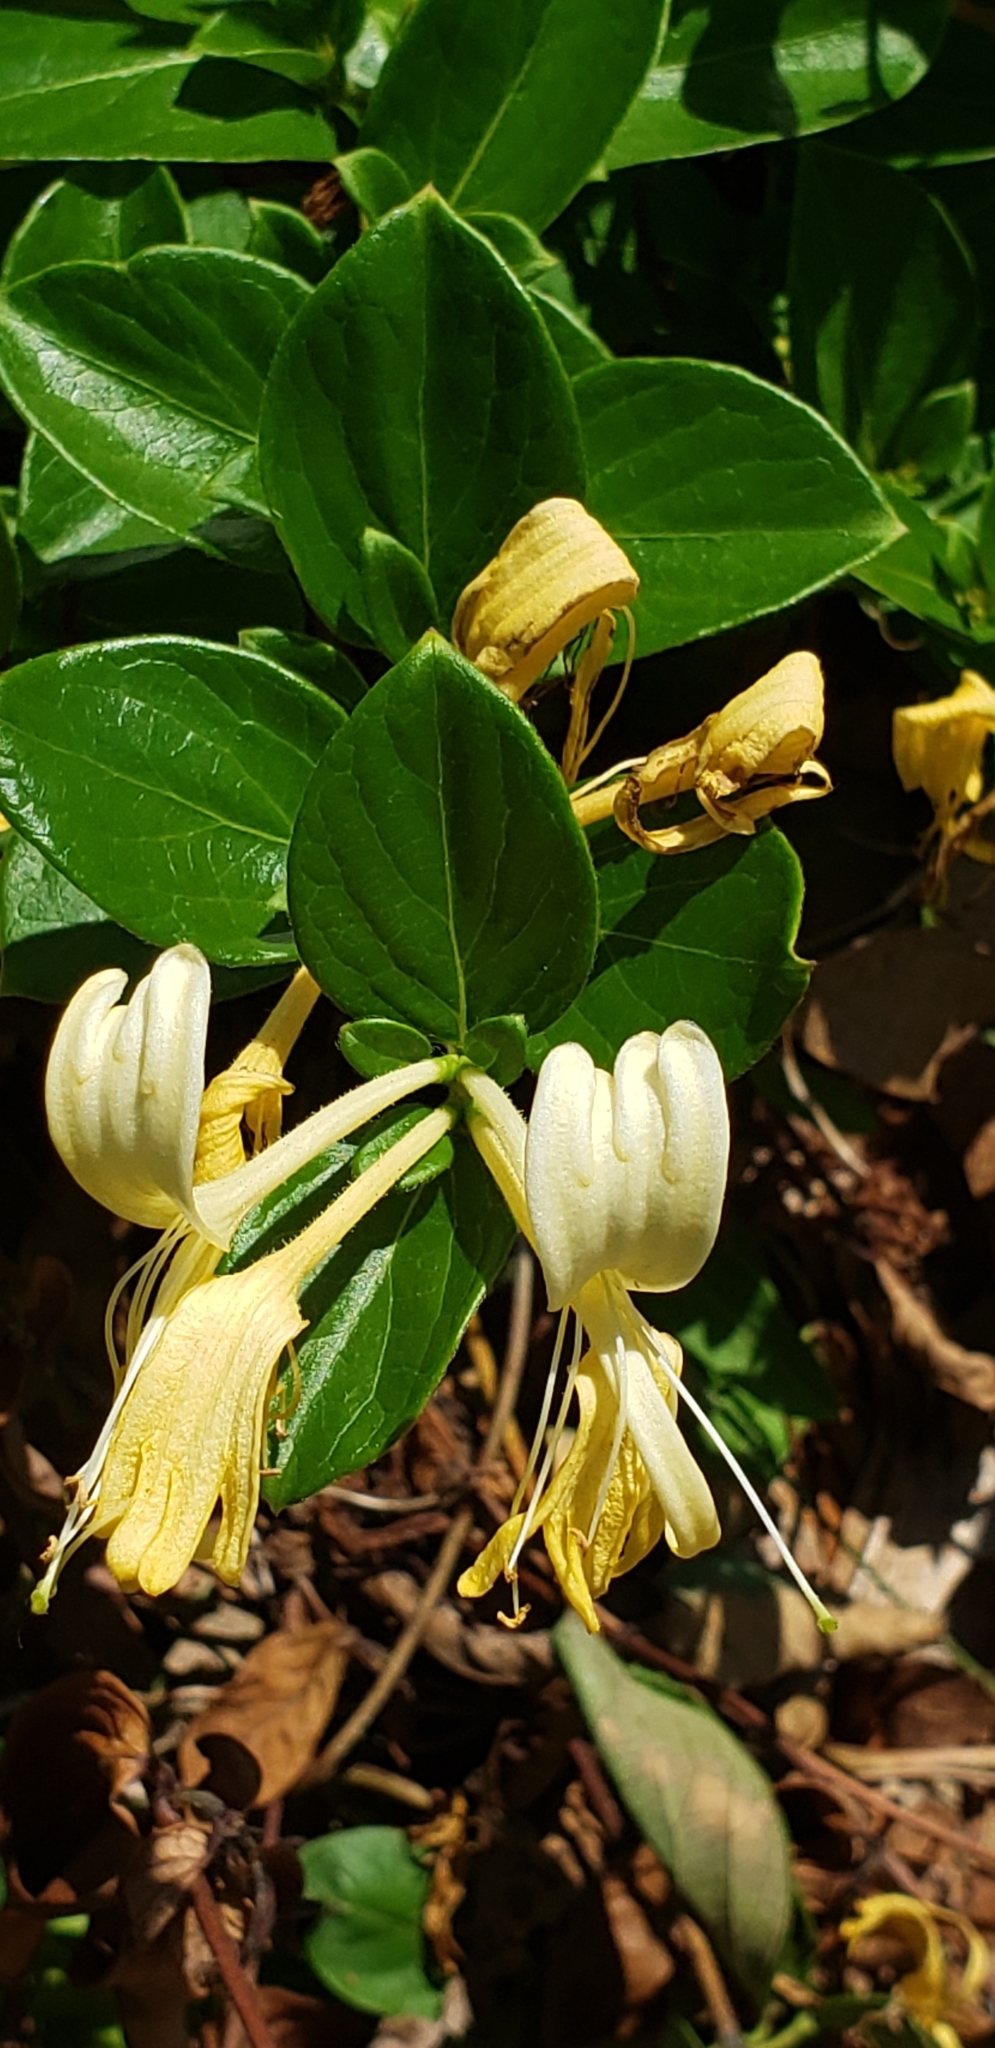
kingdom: Plantae
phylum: Tracheophyta
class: Magnoliopsida
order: Dipsacales
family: Caprifoliaceae
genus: Lonicera
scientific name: Lonicera japonica
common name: Japanese honeysuckle
